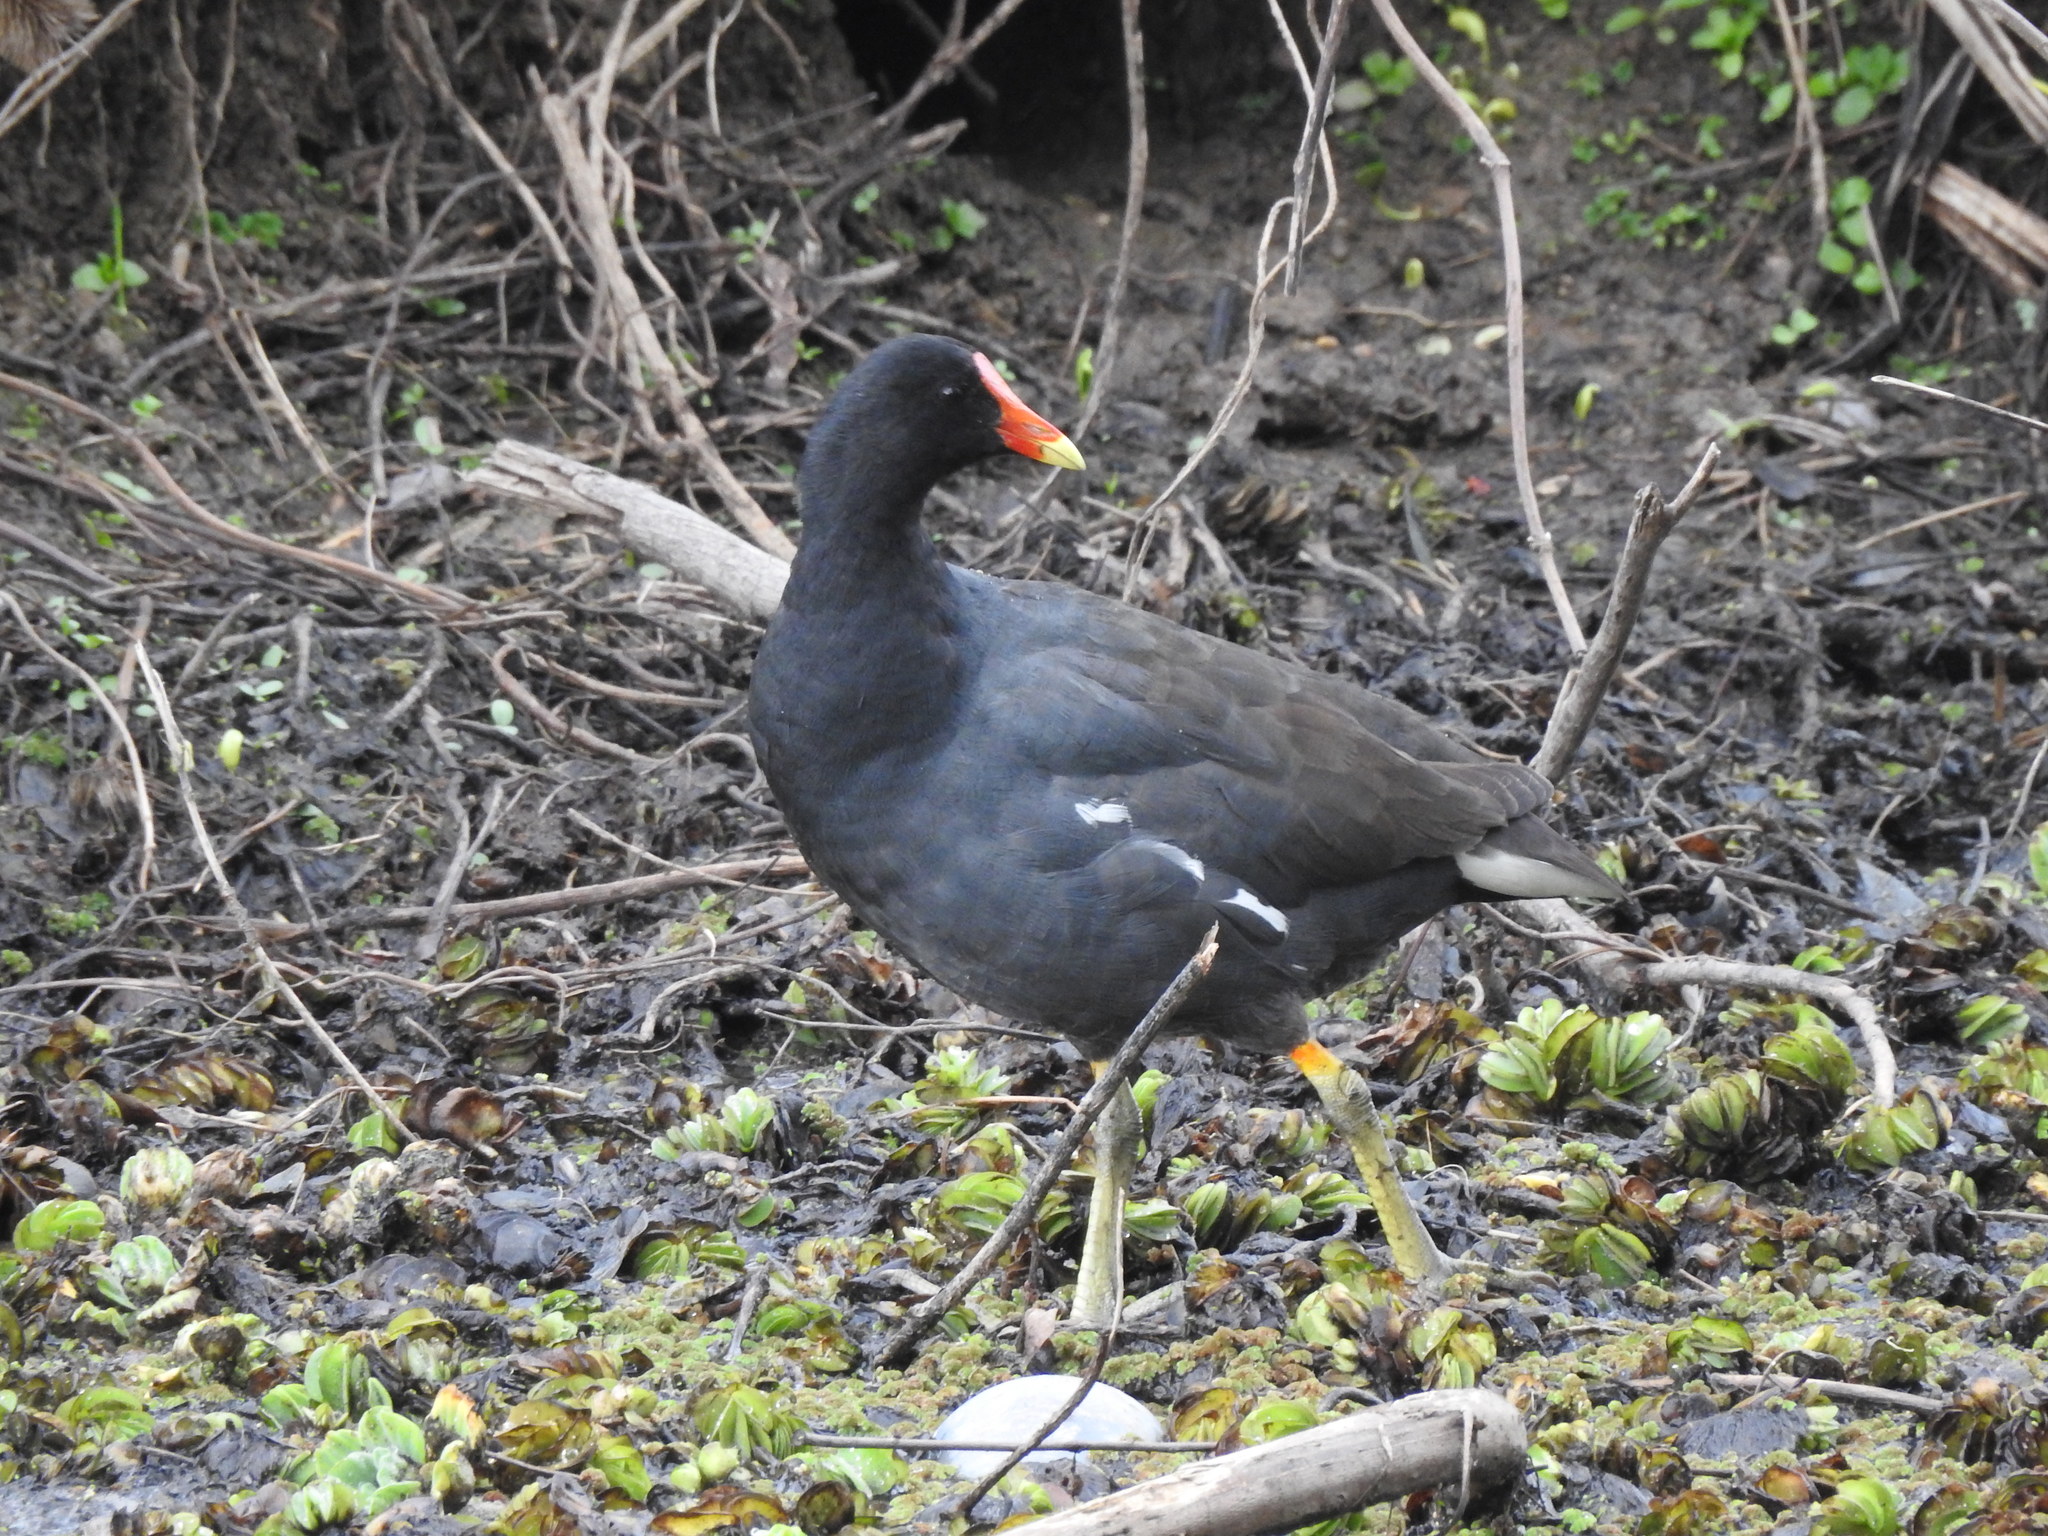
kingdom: Animalia
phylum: Chordata
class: Aves
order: Gruiformes
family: Rallidae
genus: Gallinula
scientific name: Gallinula chloropus
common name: Common moorhen
